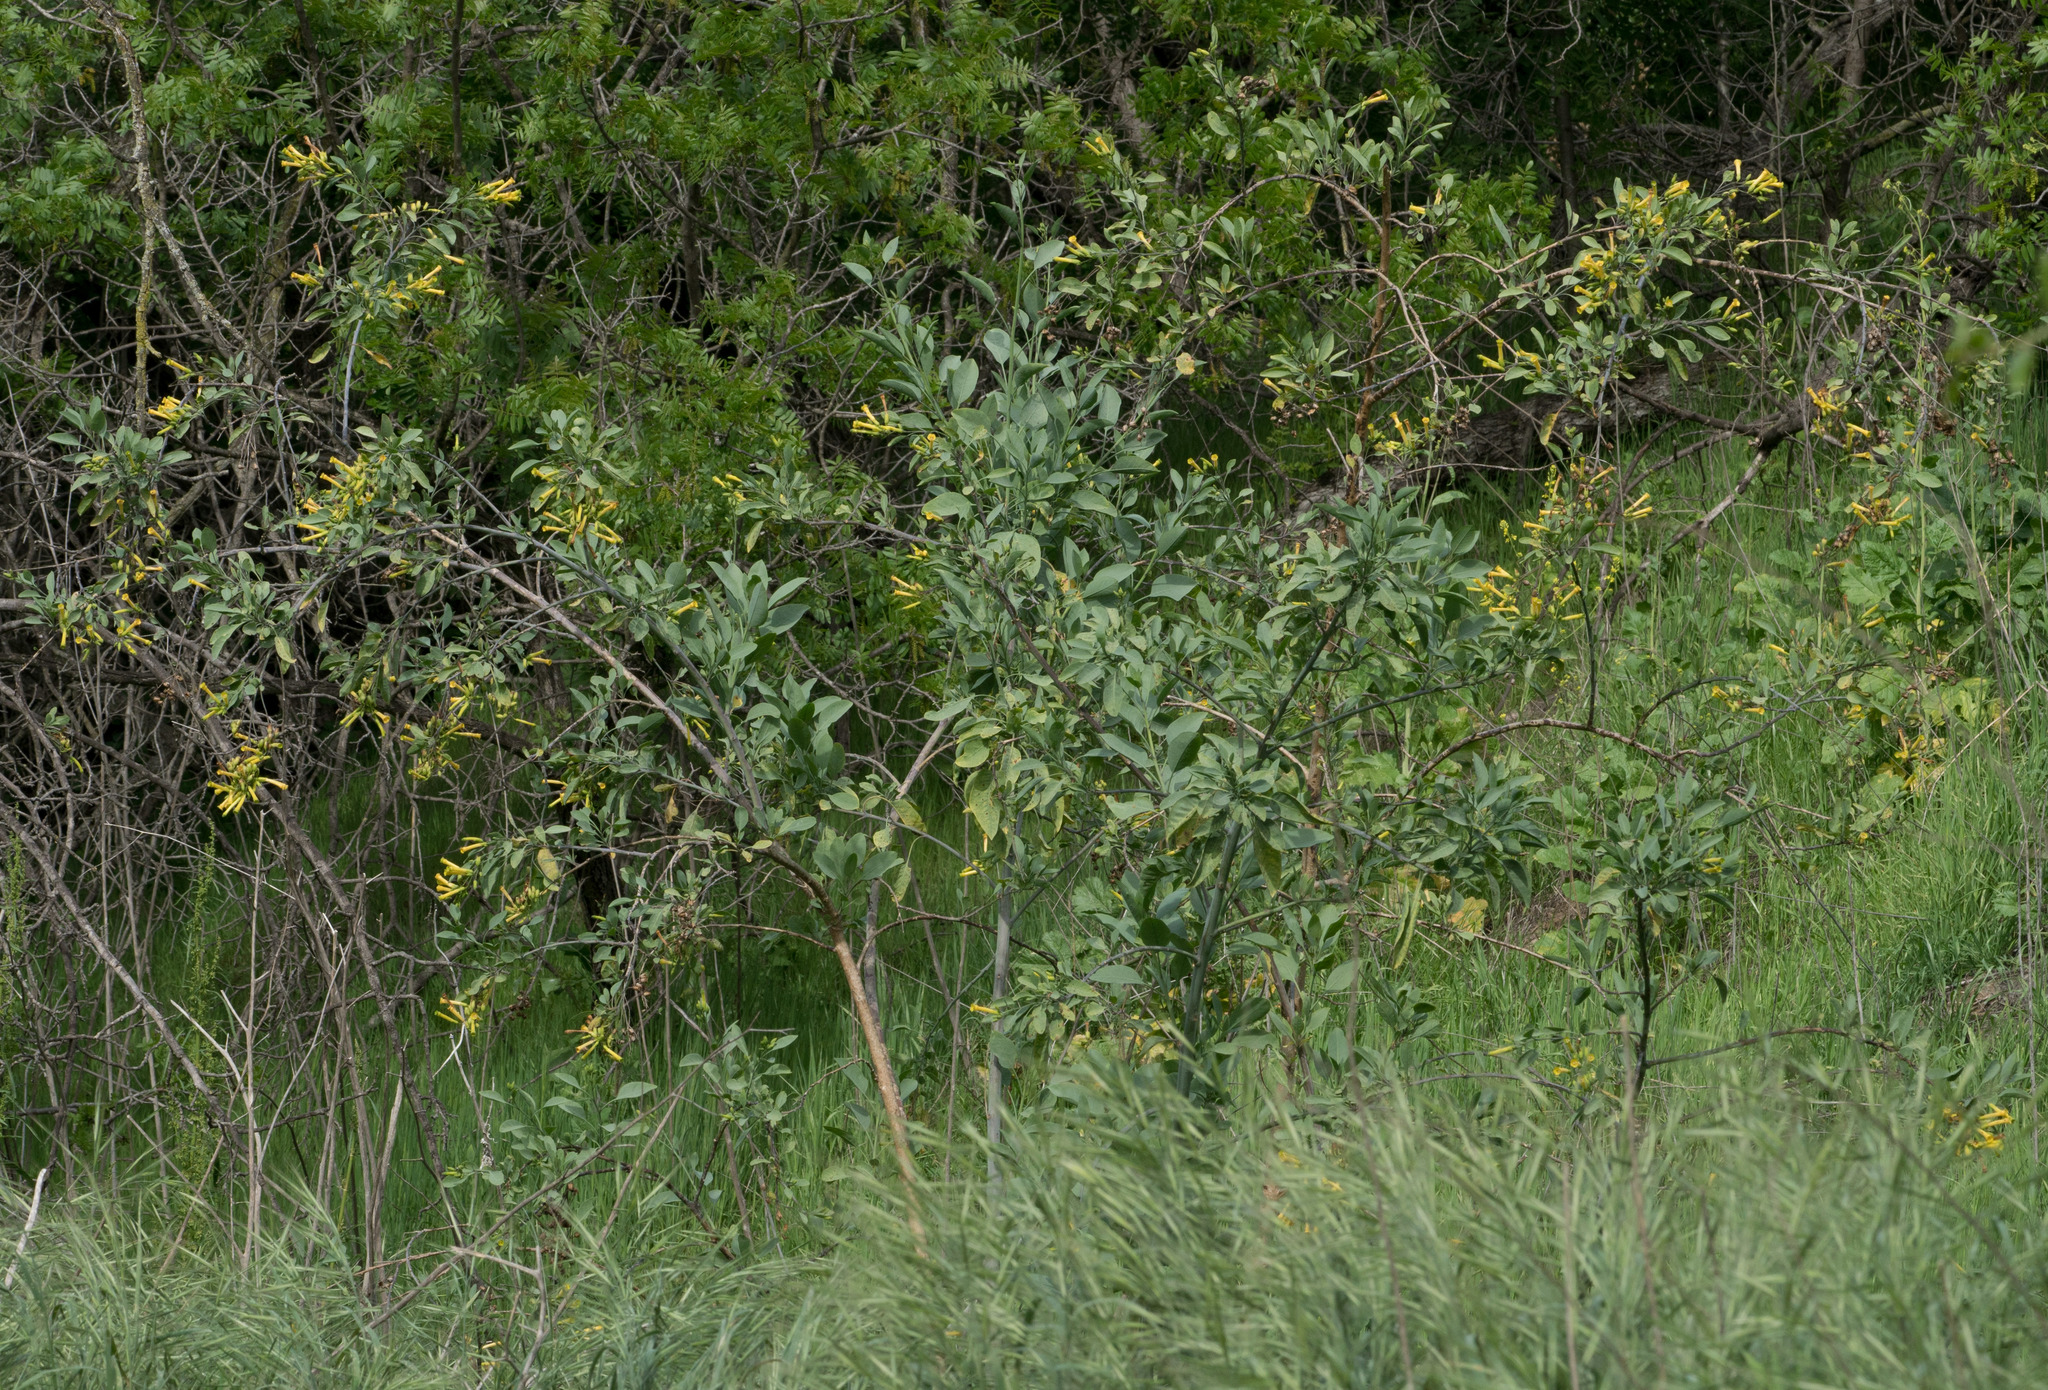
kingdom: Plantae
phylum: Tracheophyta
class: Magnoliopsida
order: Solanales
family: Solanaceae
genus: Nicotiana
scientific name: Nicotiana glauca
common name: Tree tobacco
